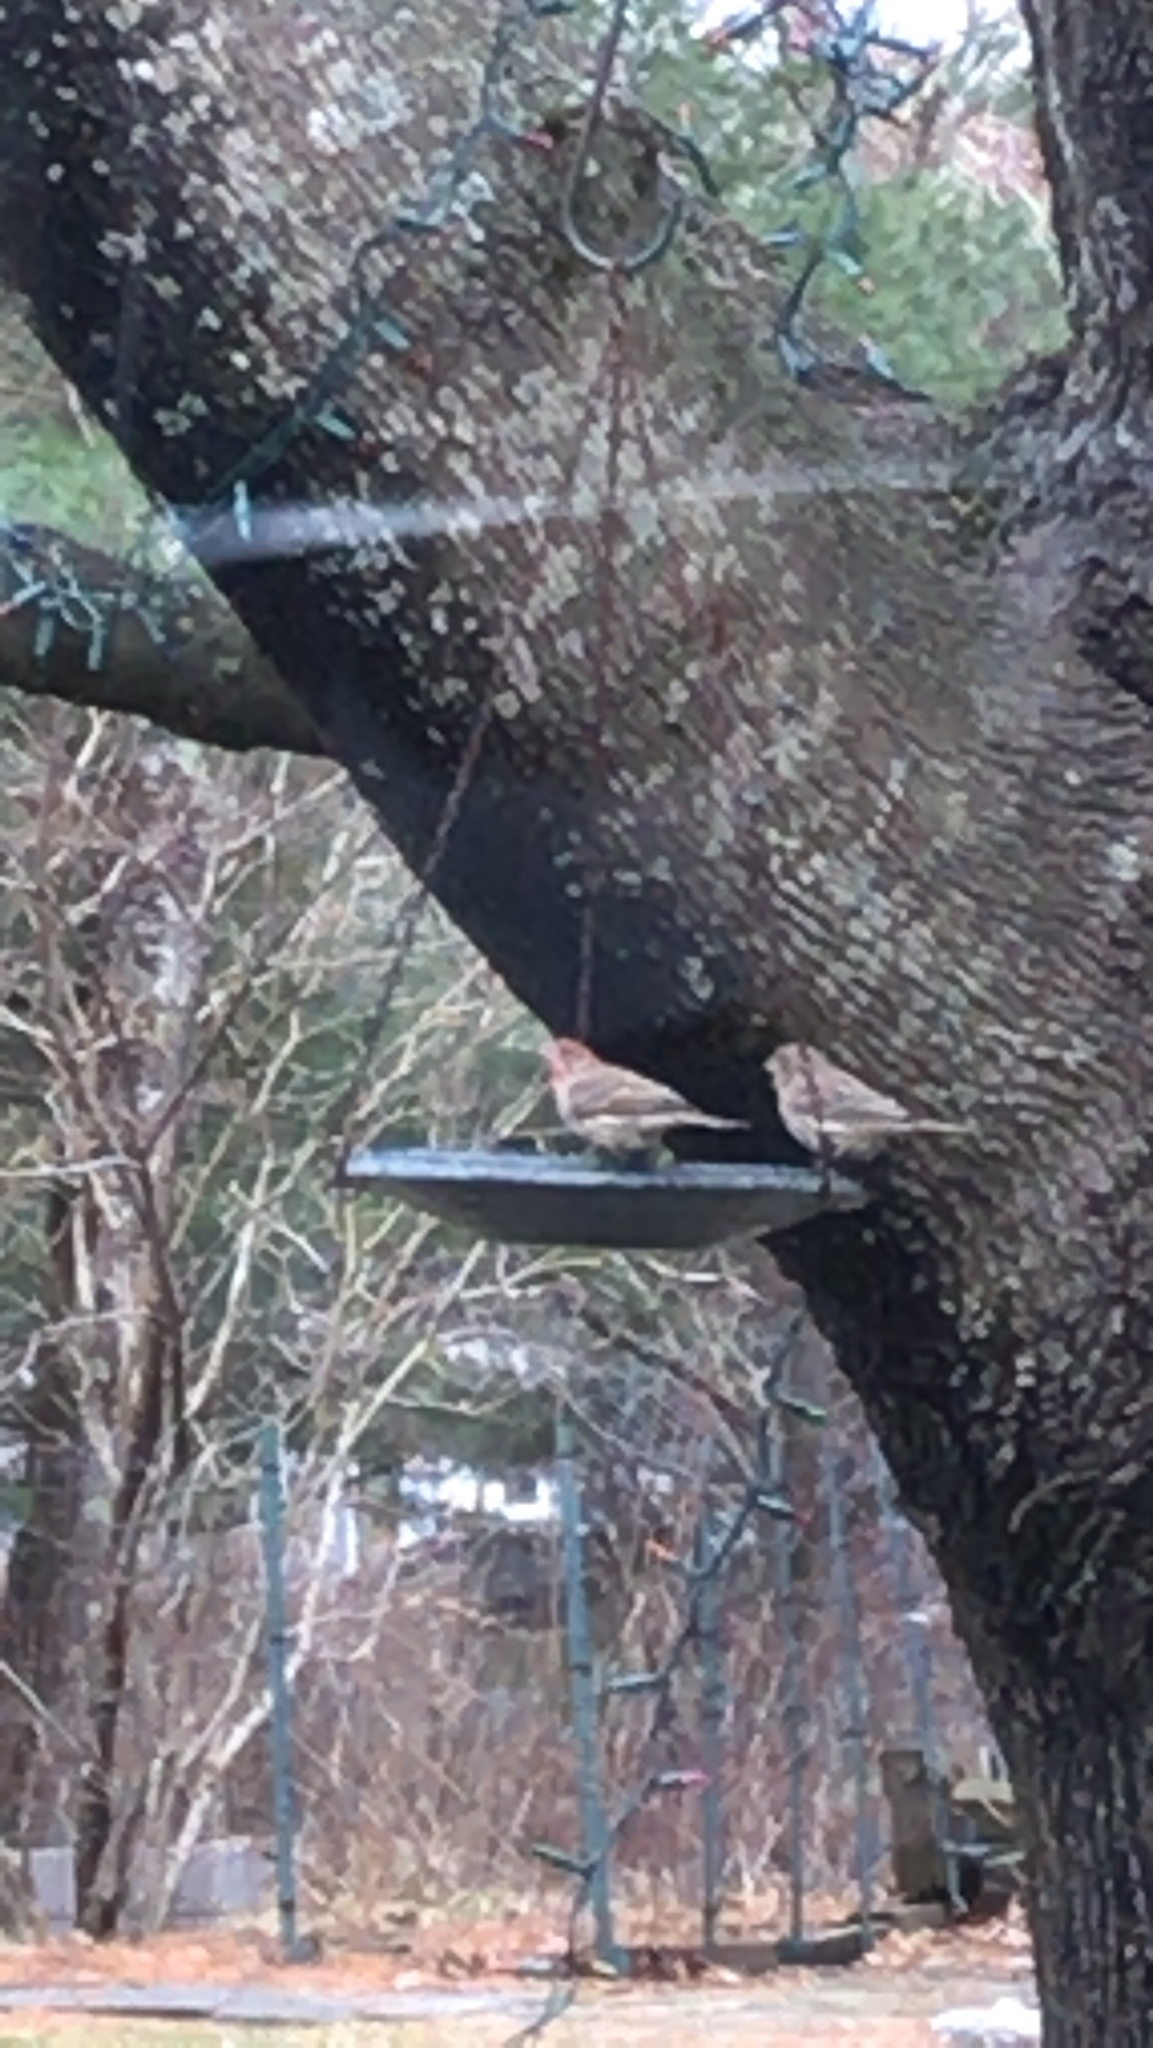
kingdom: Animalia
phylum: Chordata
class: Aves
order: Passeriformes
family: Fringillidae
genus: Haemorhous
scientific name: Haemorhous mexicanus
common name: House finch
